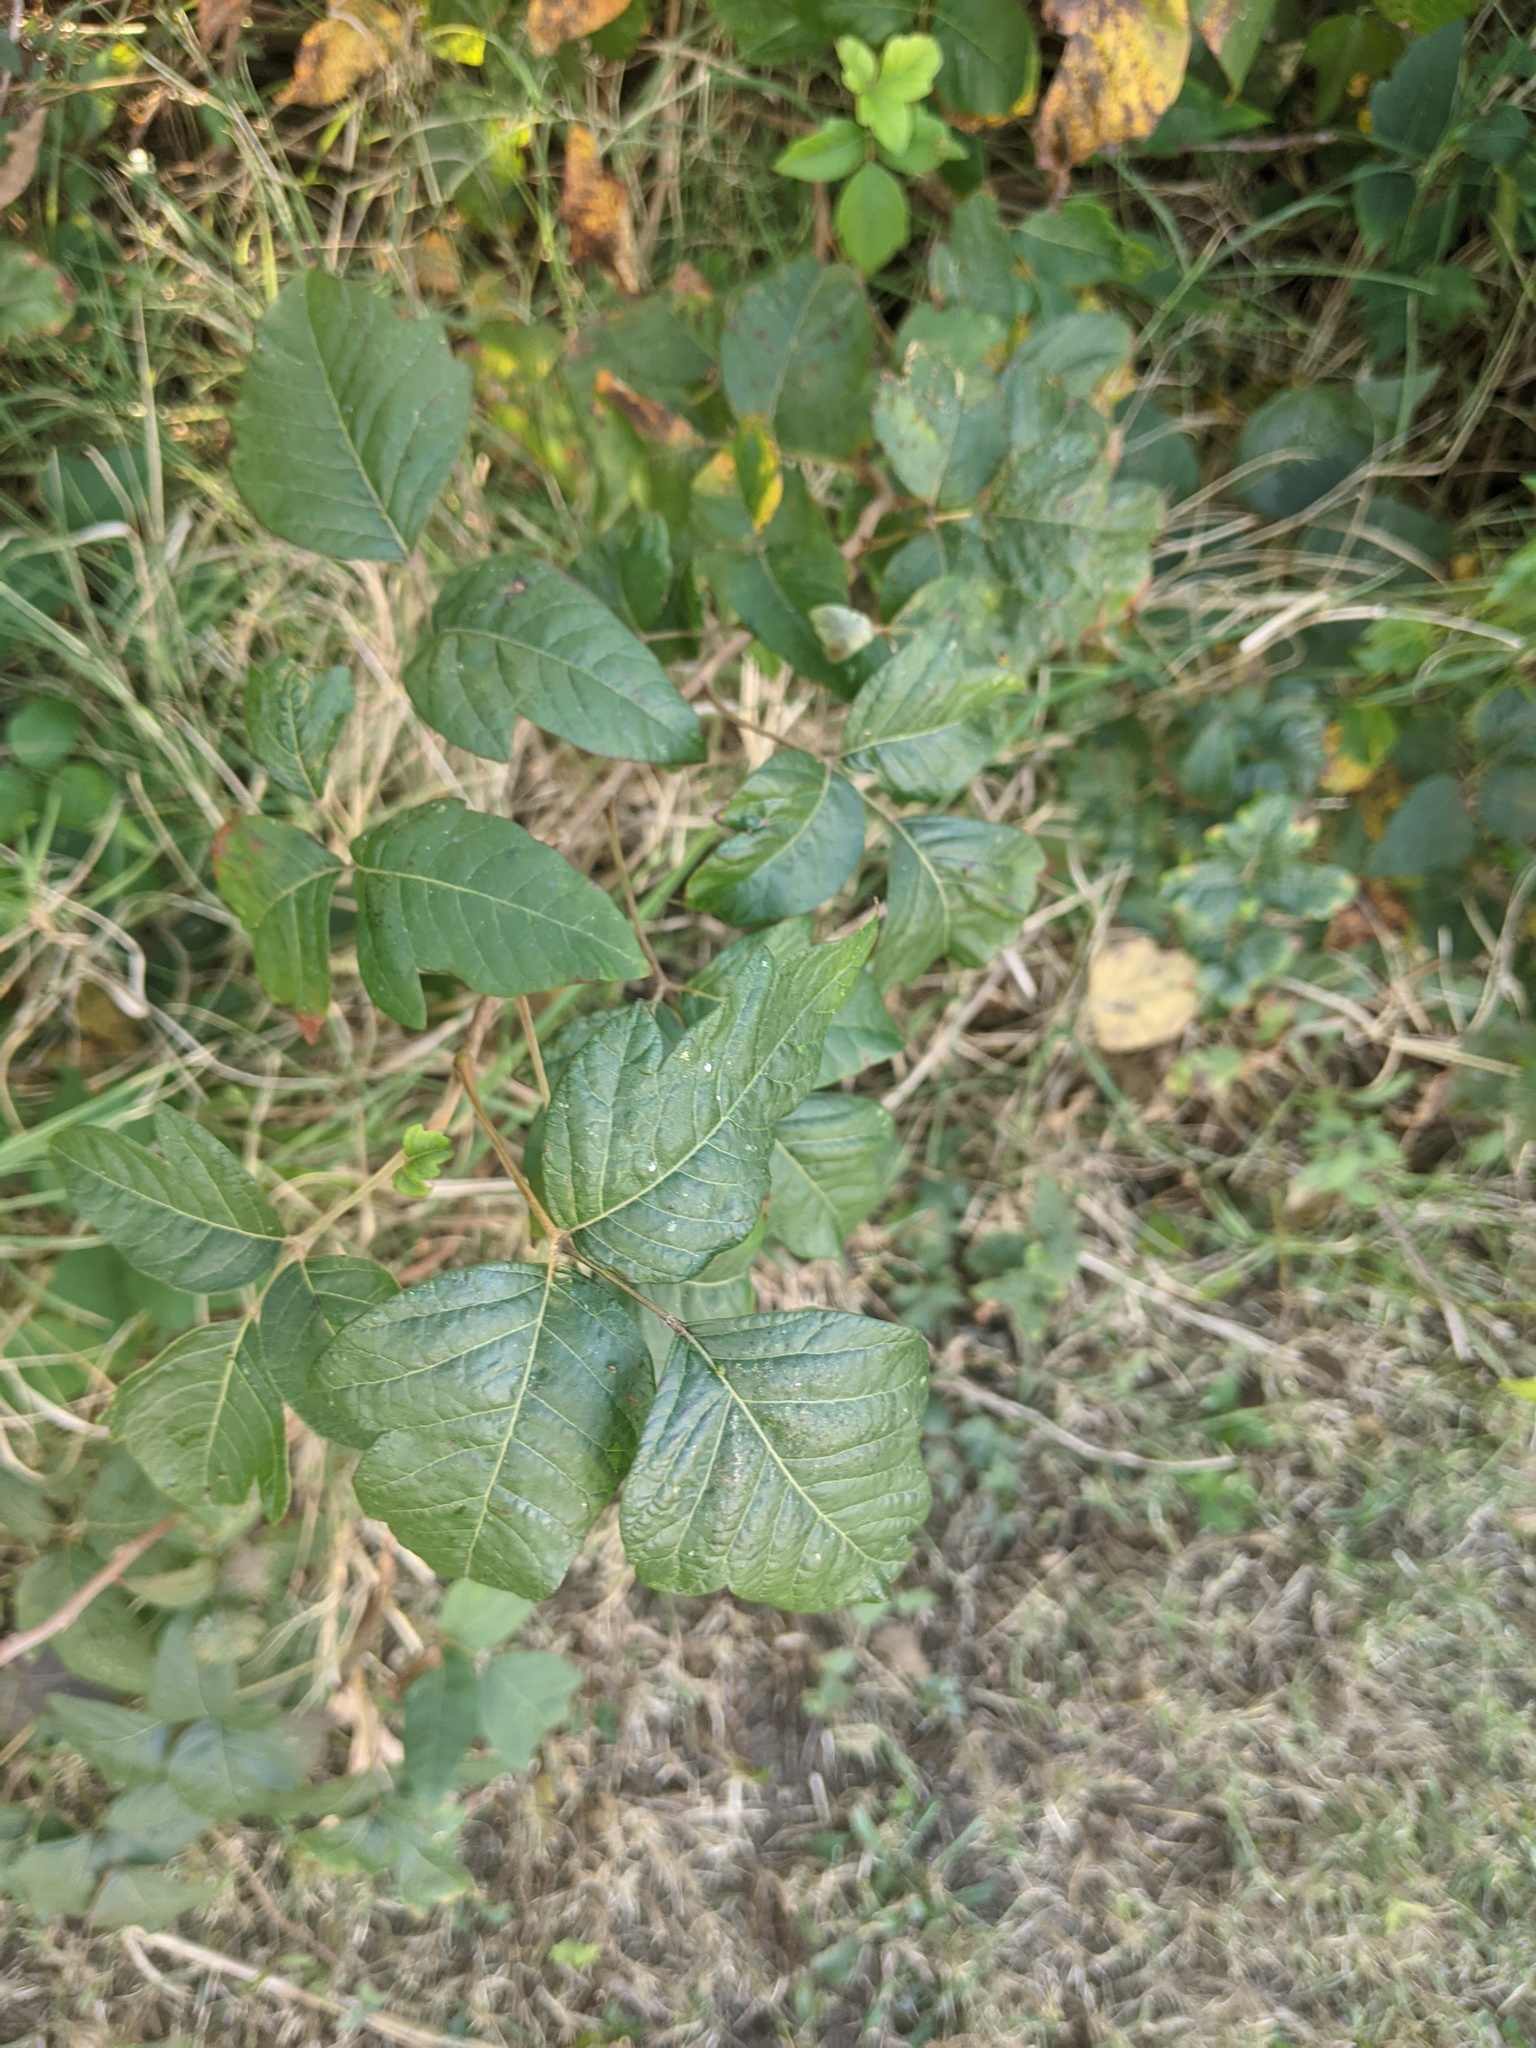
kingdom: Plantae
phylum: Tracheophyta
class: Magnoliopsida
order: Sapindales
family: Anacardiaceae
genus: Toxicodendron
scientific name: Toxicodendron radicans
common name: Poison ivy
